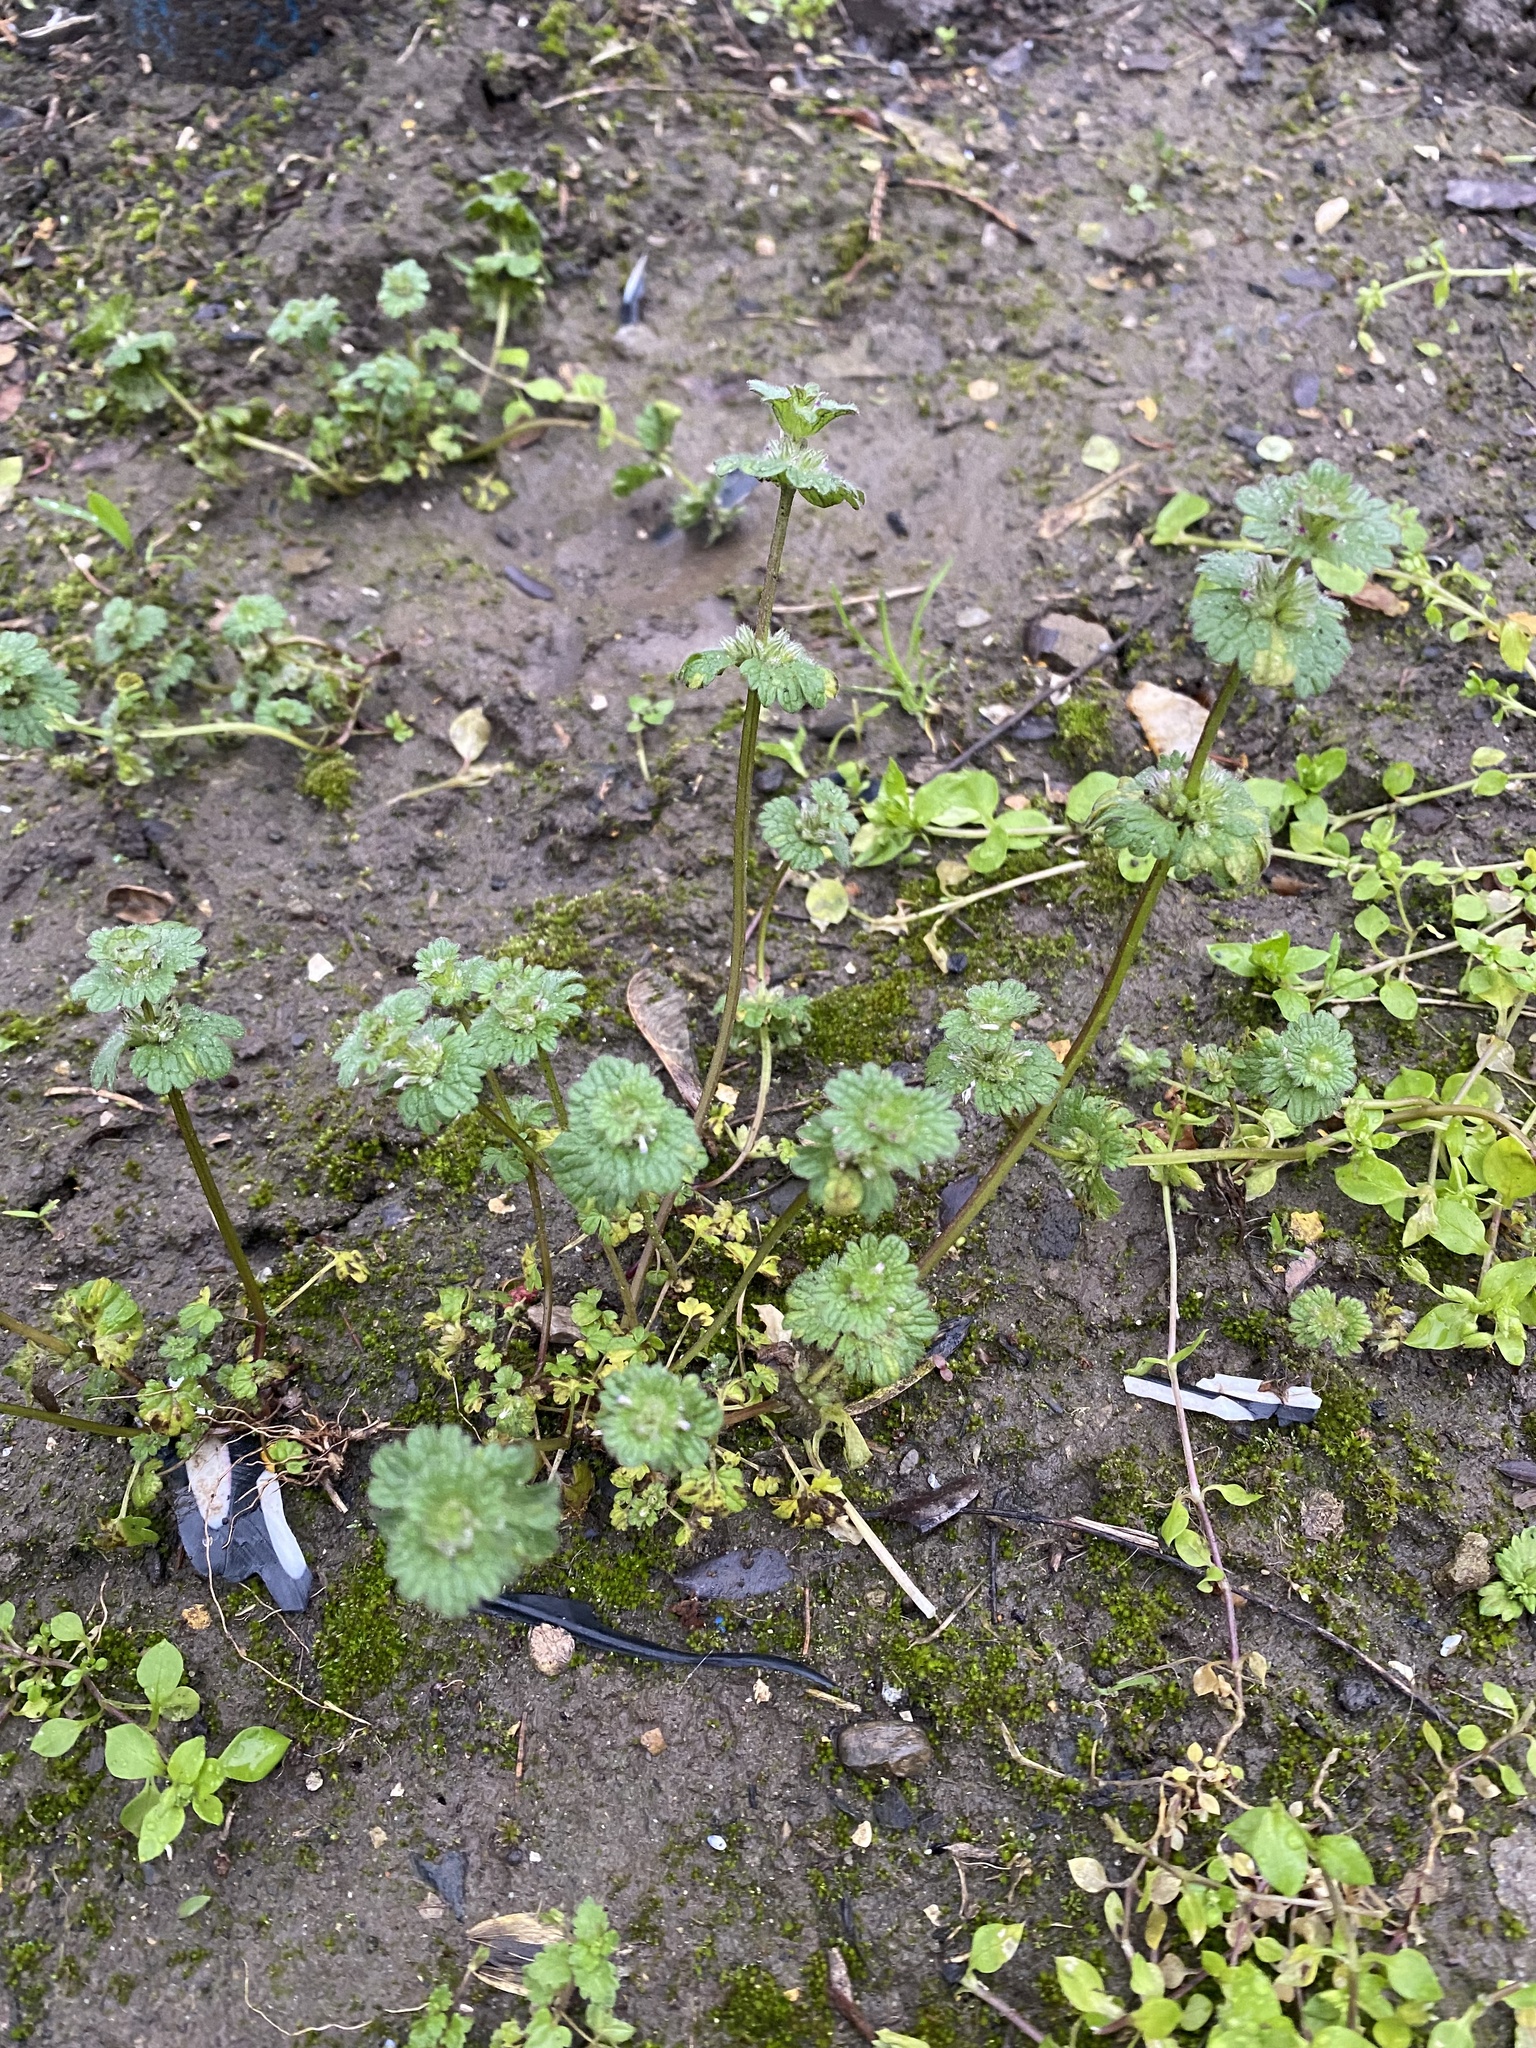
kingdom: Plantae
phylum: Tracheophyta
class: Magnoliopsida
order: Lamiales
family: Lamiaceae
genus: Lamium
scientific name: Lamium amplexicaule
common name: Henbit dead-nettle
